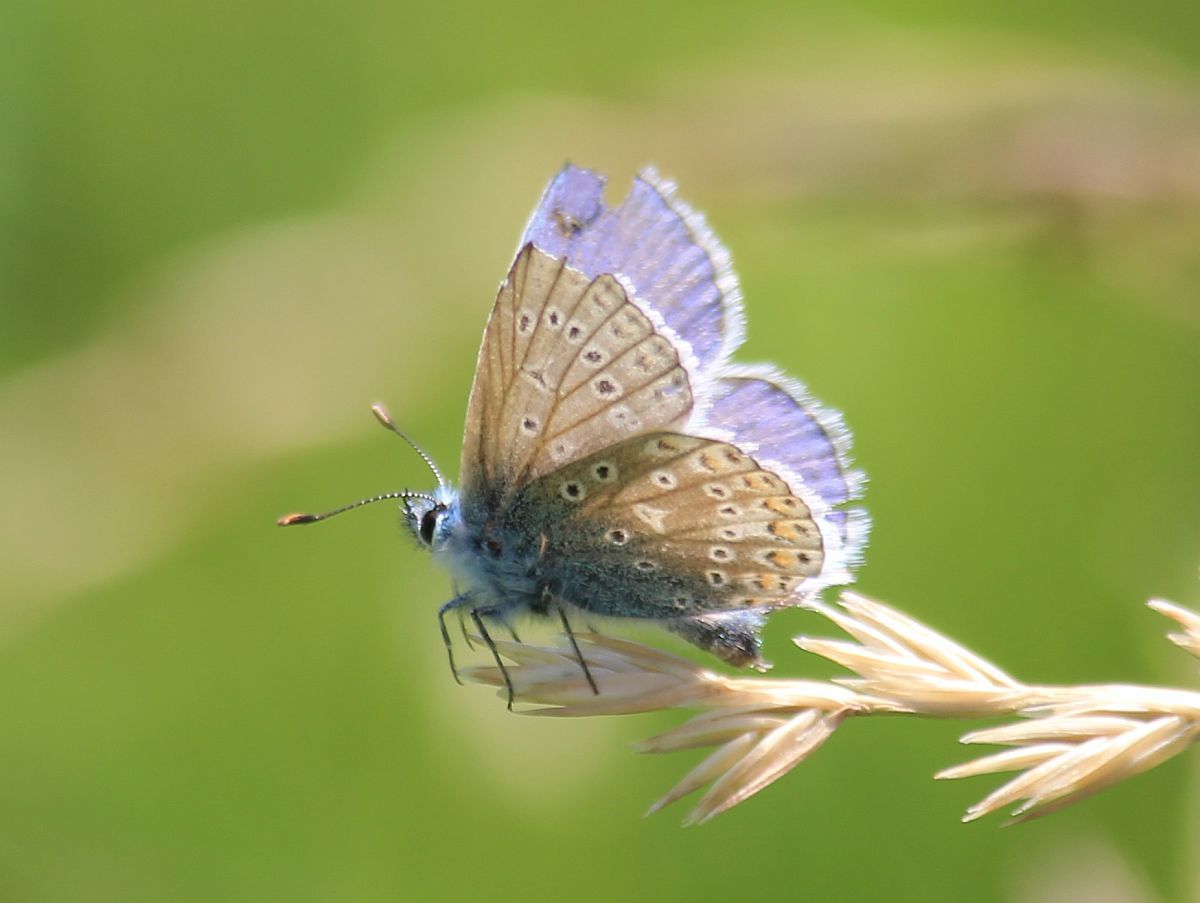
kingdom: Animalia
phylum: Arthropoda
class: Insecta
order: Lepidoptera
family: Lycaenidae
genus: Polyommatus
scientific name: Polyommatus icarus
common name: Common blue
